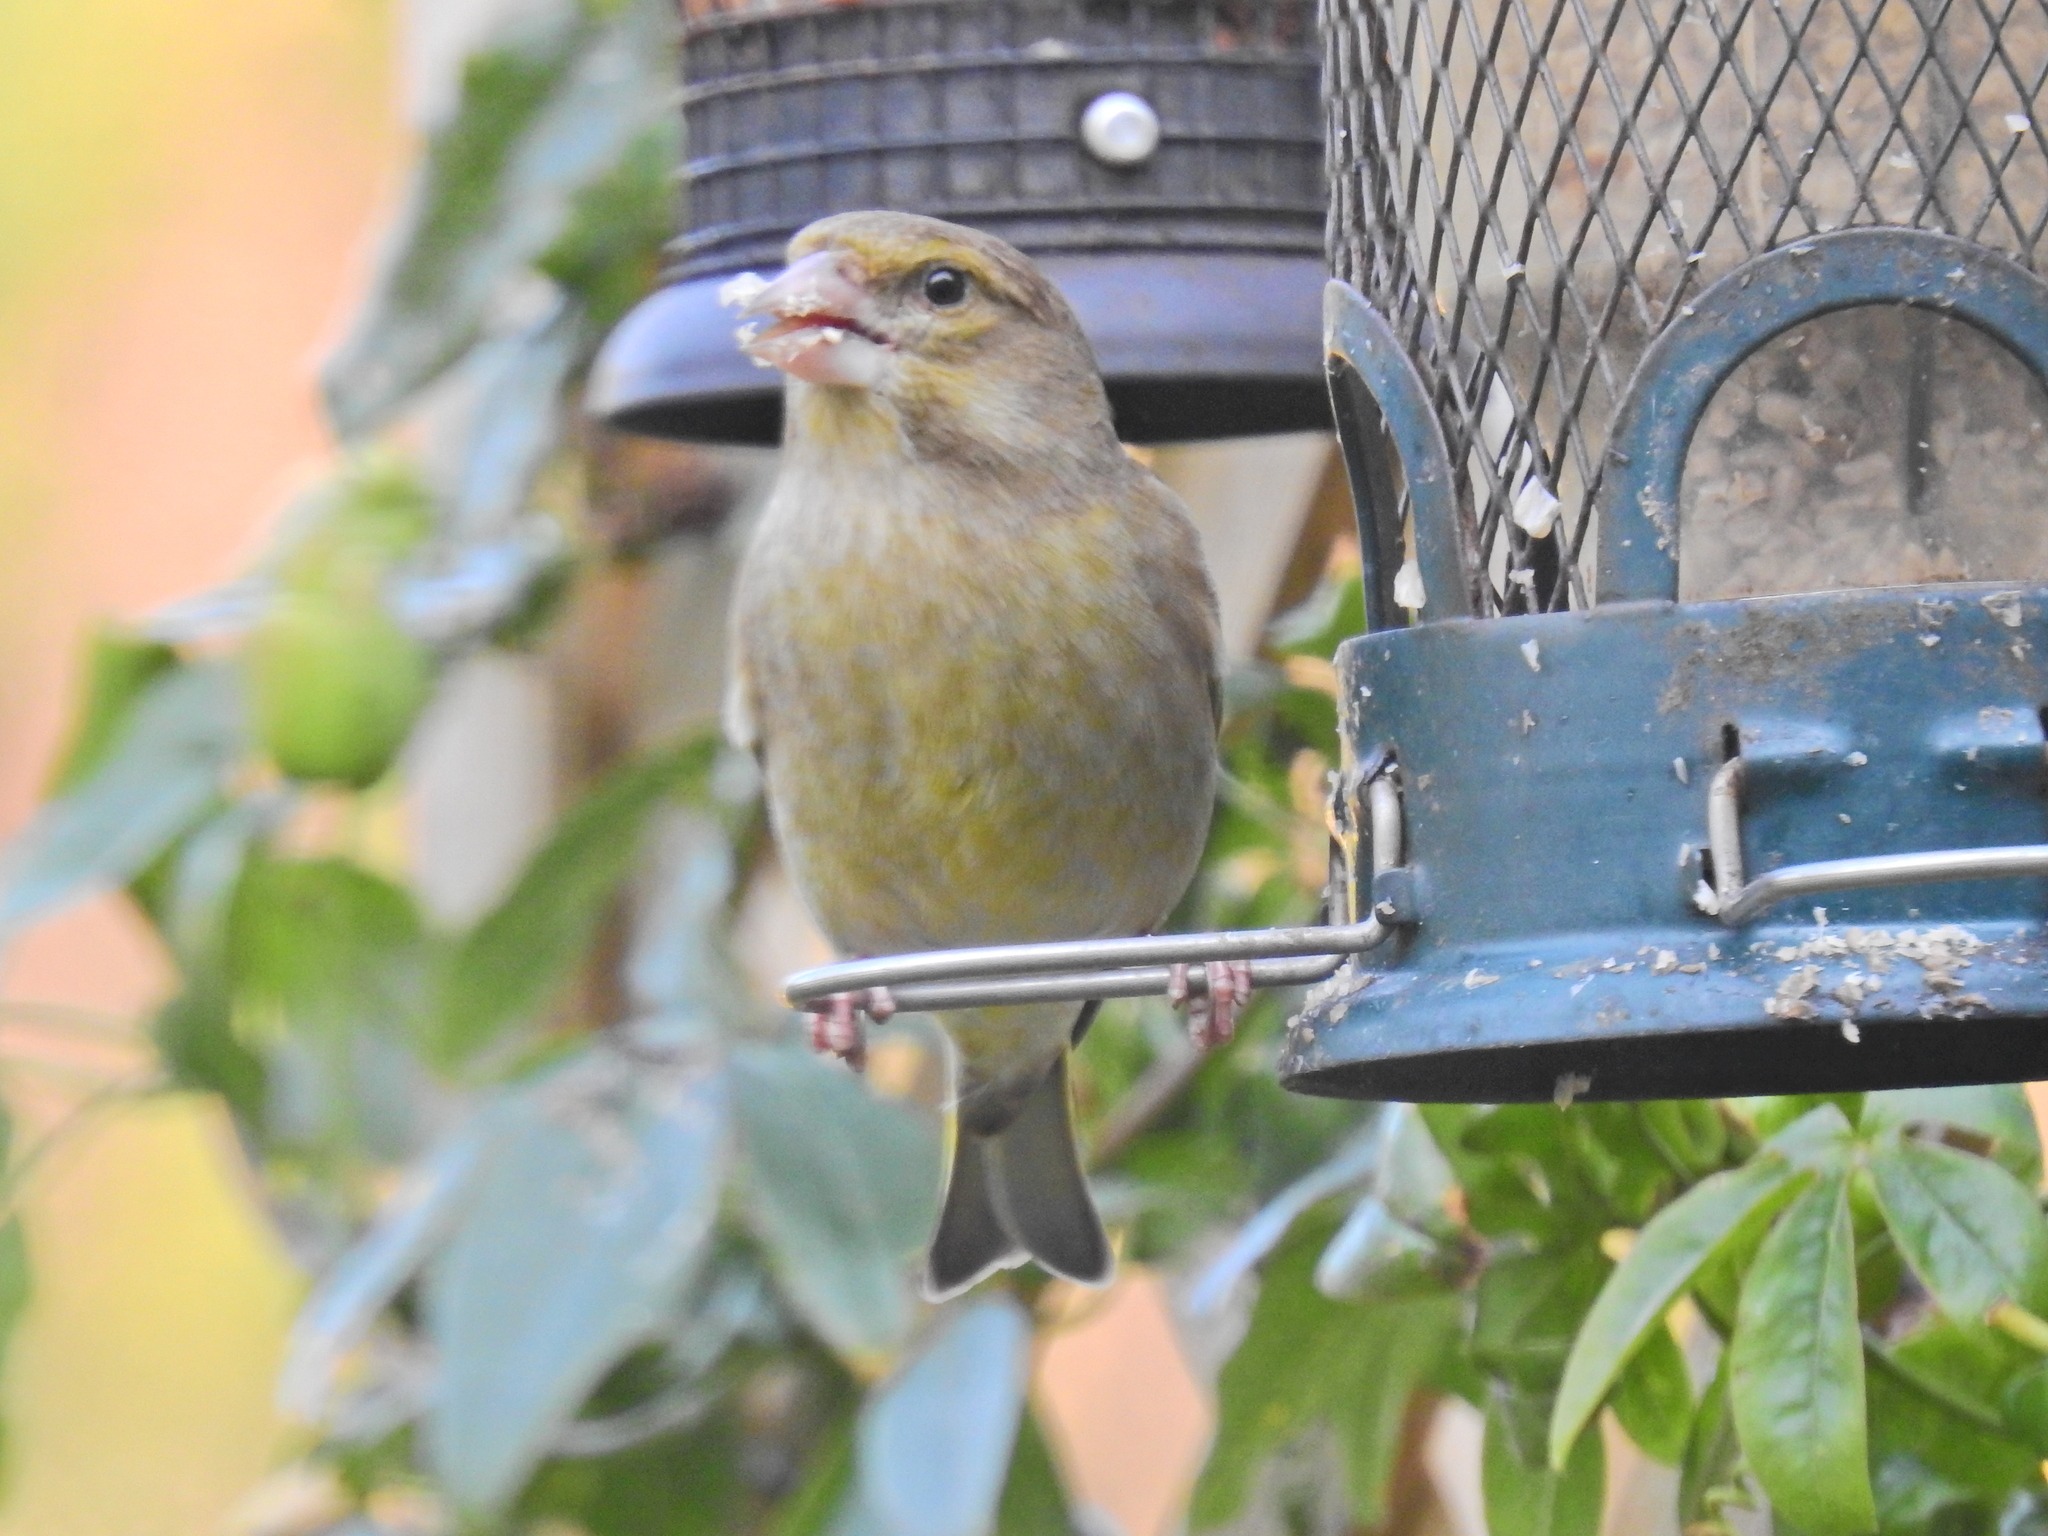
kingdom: Plantae
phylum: Tracheophyta
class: Liliopsida
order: Poales
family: Poaceae
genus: Chloris
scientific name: Chloris chloris
